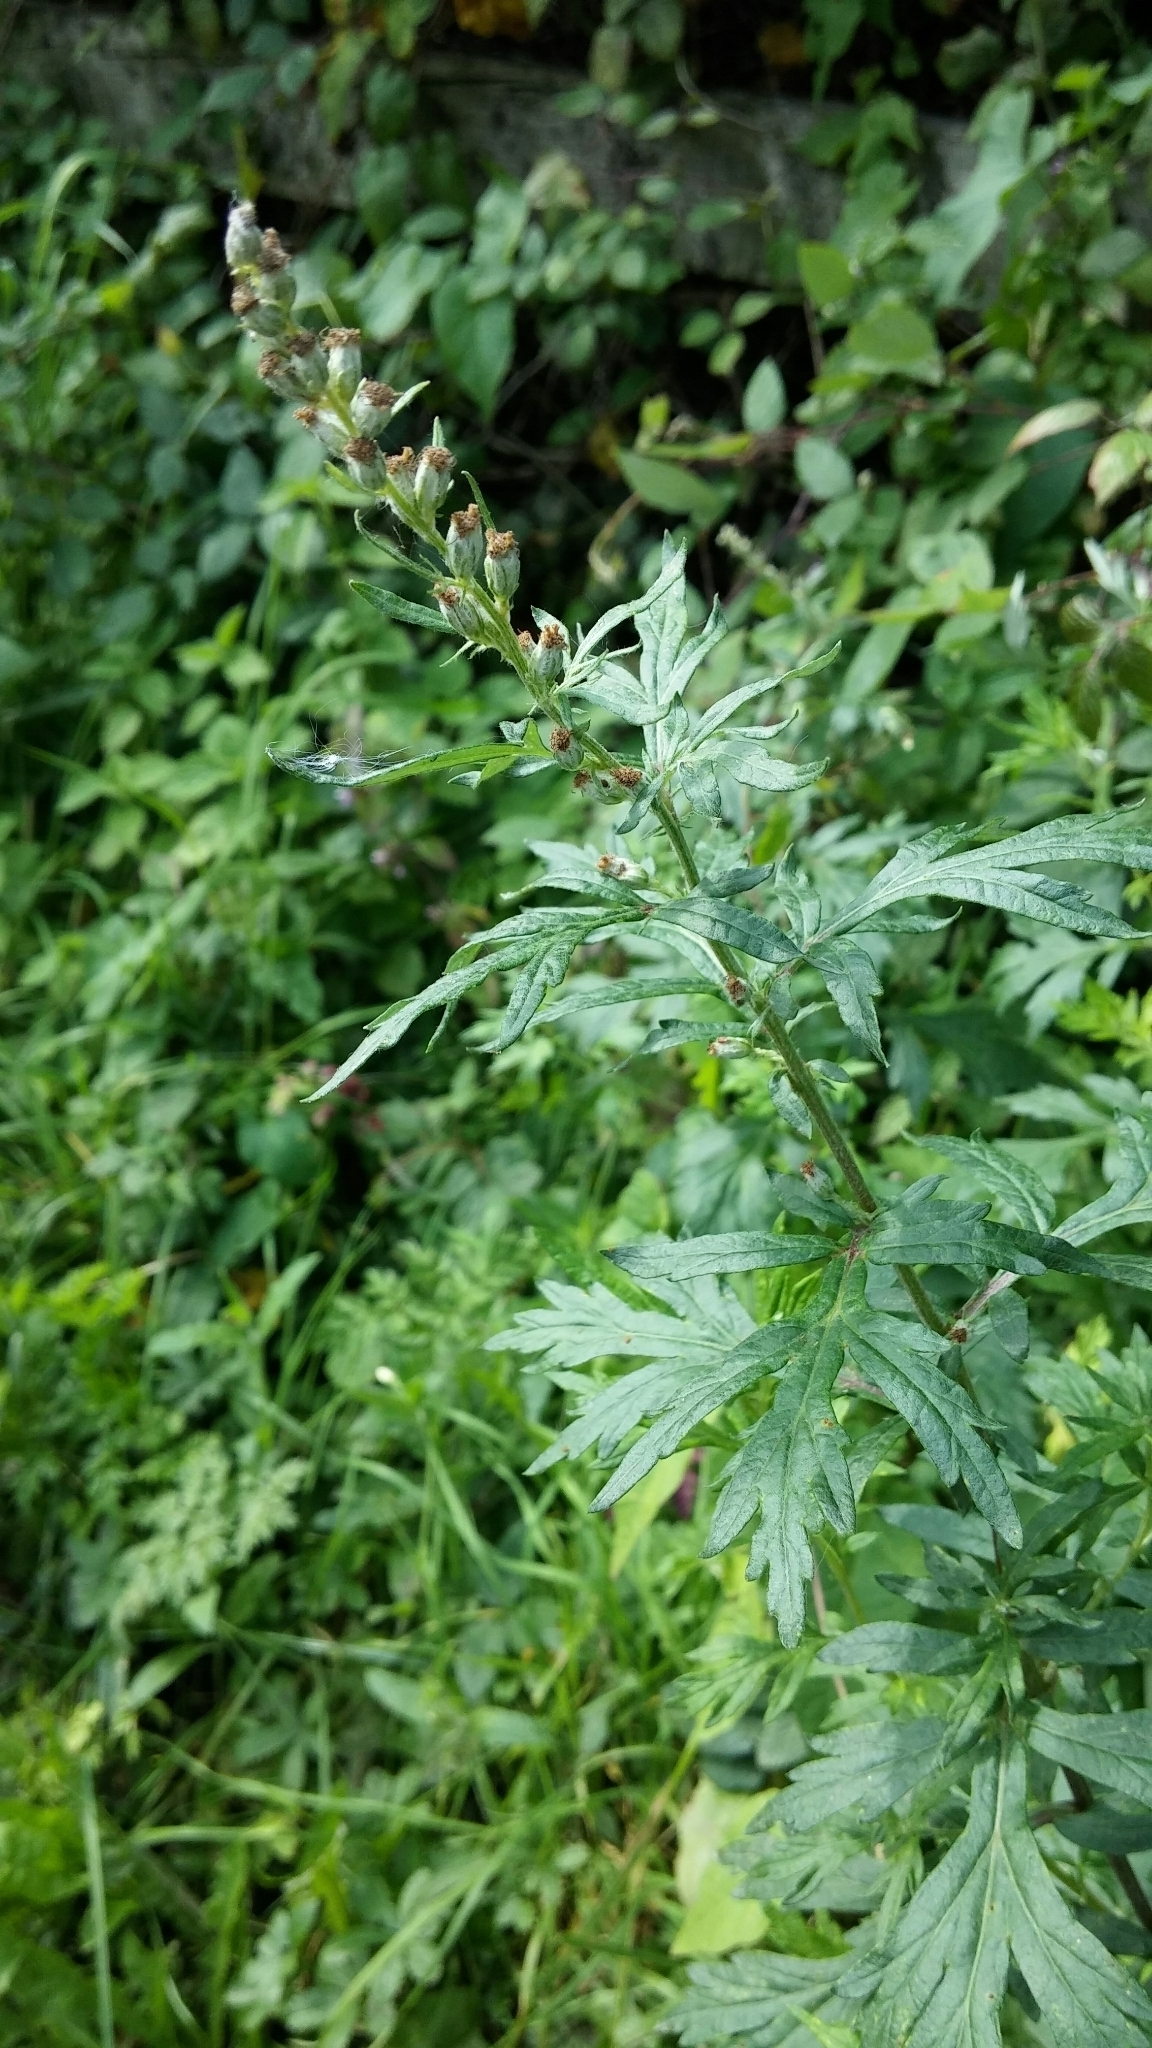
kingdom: Plantae
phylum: Tracheophyta
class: Magnoliopsida
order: Asterales
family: Asteraceae
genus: Artemisia
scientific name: Artemisia vulgaris
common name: Mugwort
